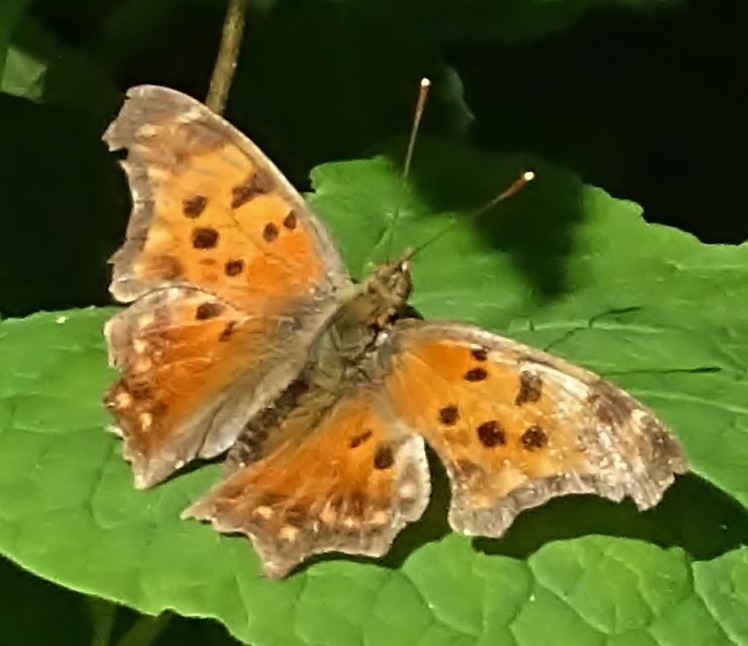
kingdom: Animalia
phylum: Arthropoda
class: Insecta
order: Lepidoptera
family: Nymphalidae
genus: Polygonia
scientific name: Polygonia comma
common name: Eastern comma
